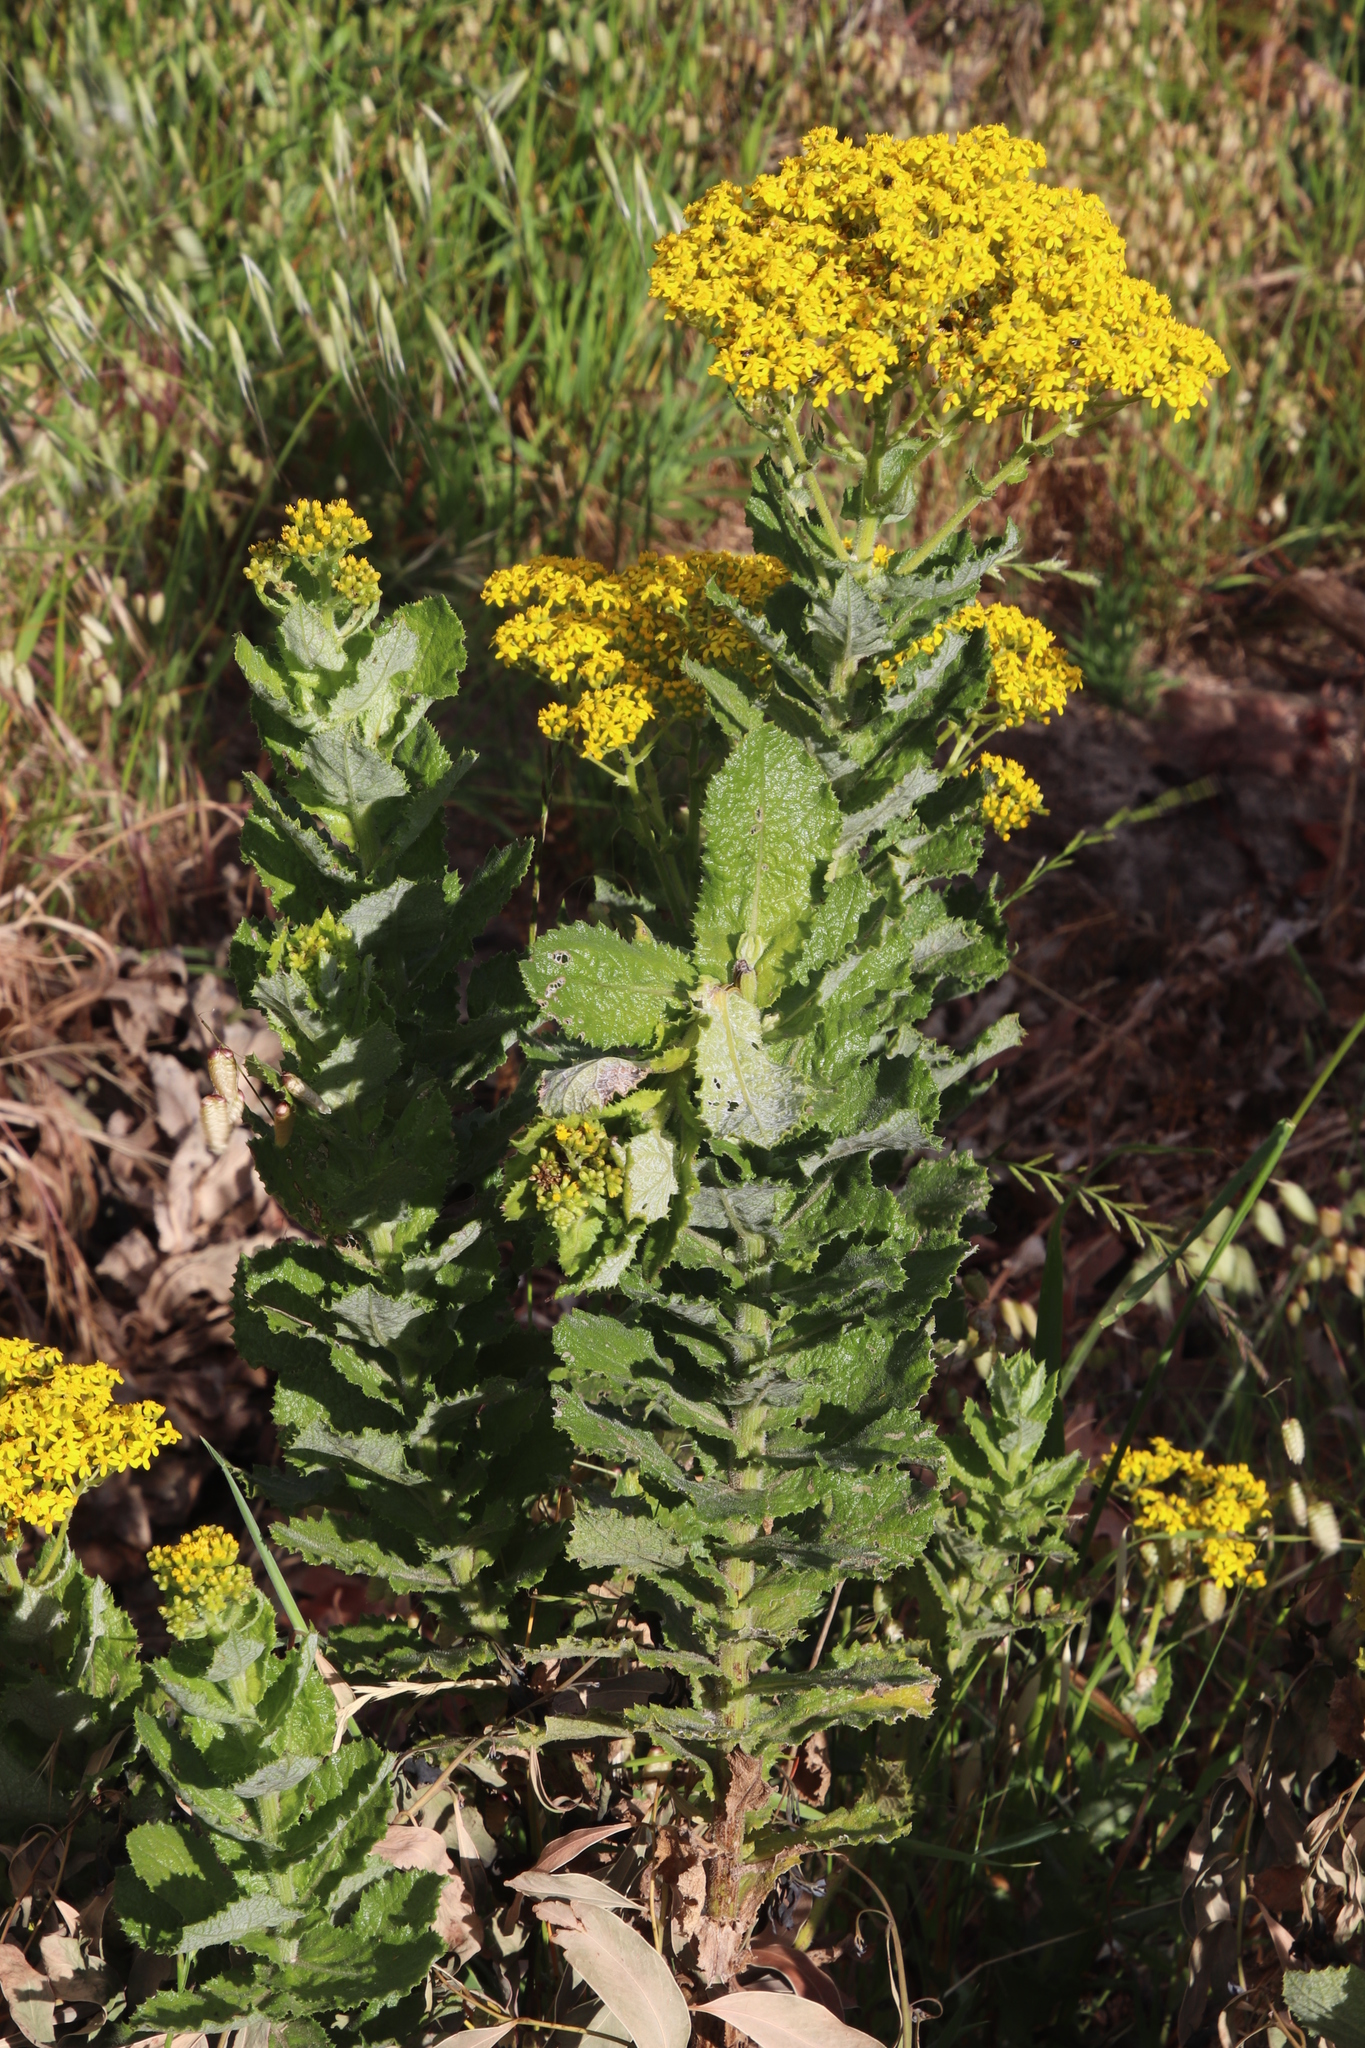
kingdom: Plantae
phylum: Tracheophyta
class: Magnoliopsida
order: Asterales
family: Asteraceae
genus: Senecio
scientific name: Senecio rigidus
